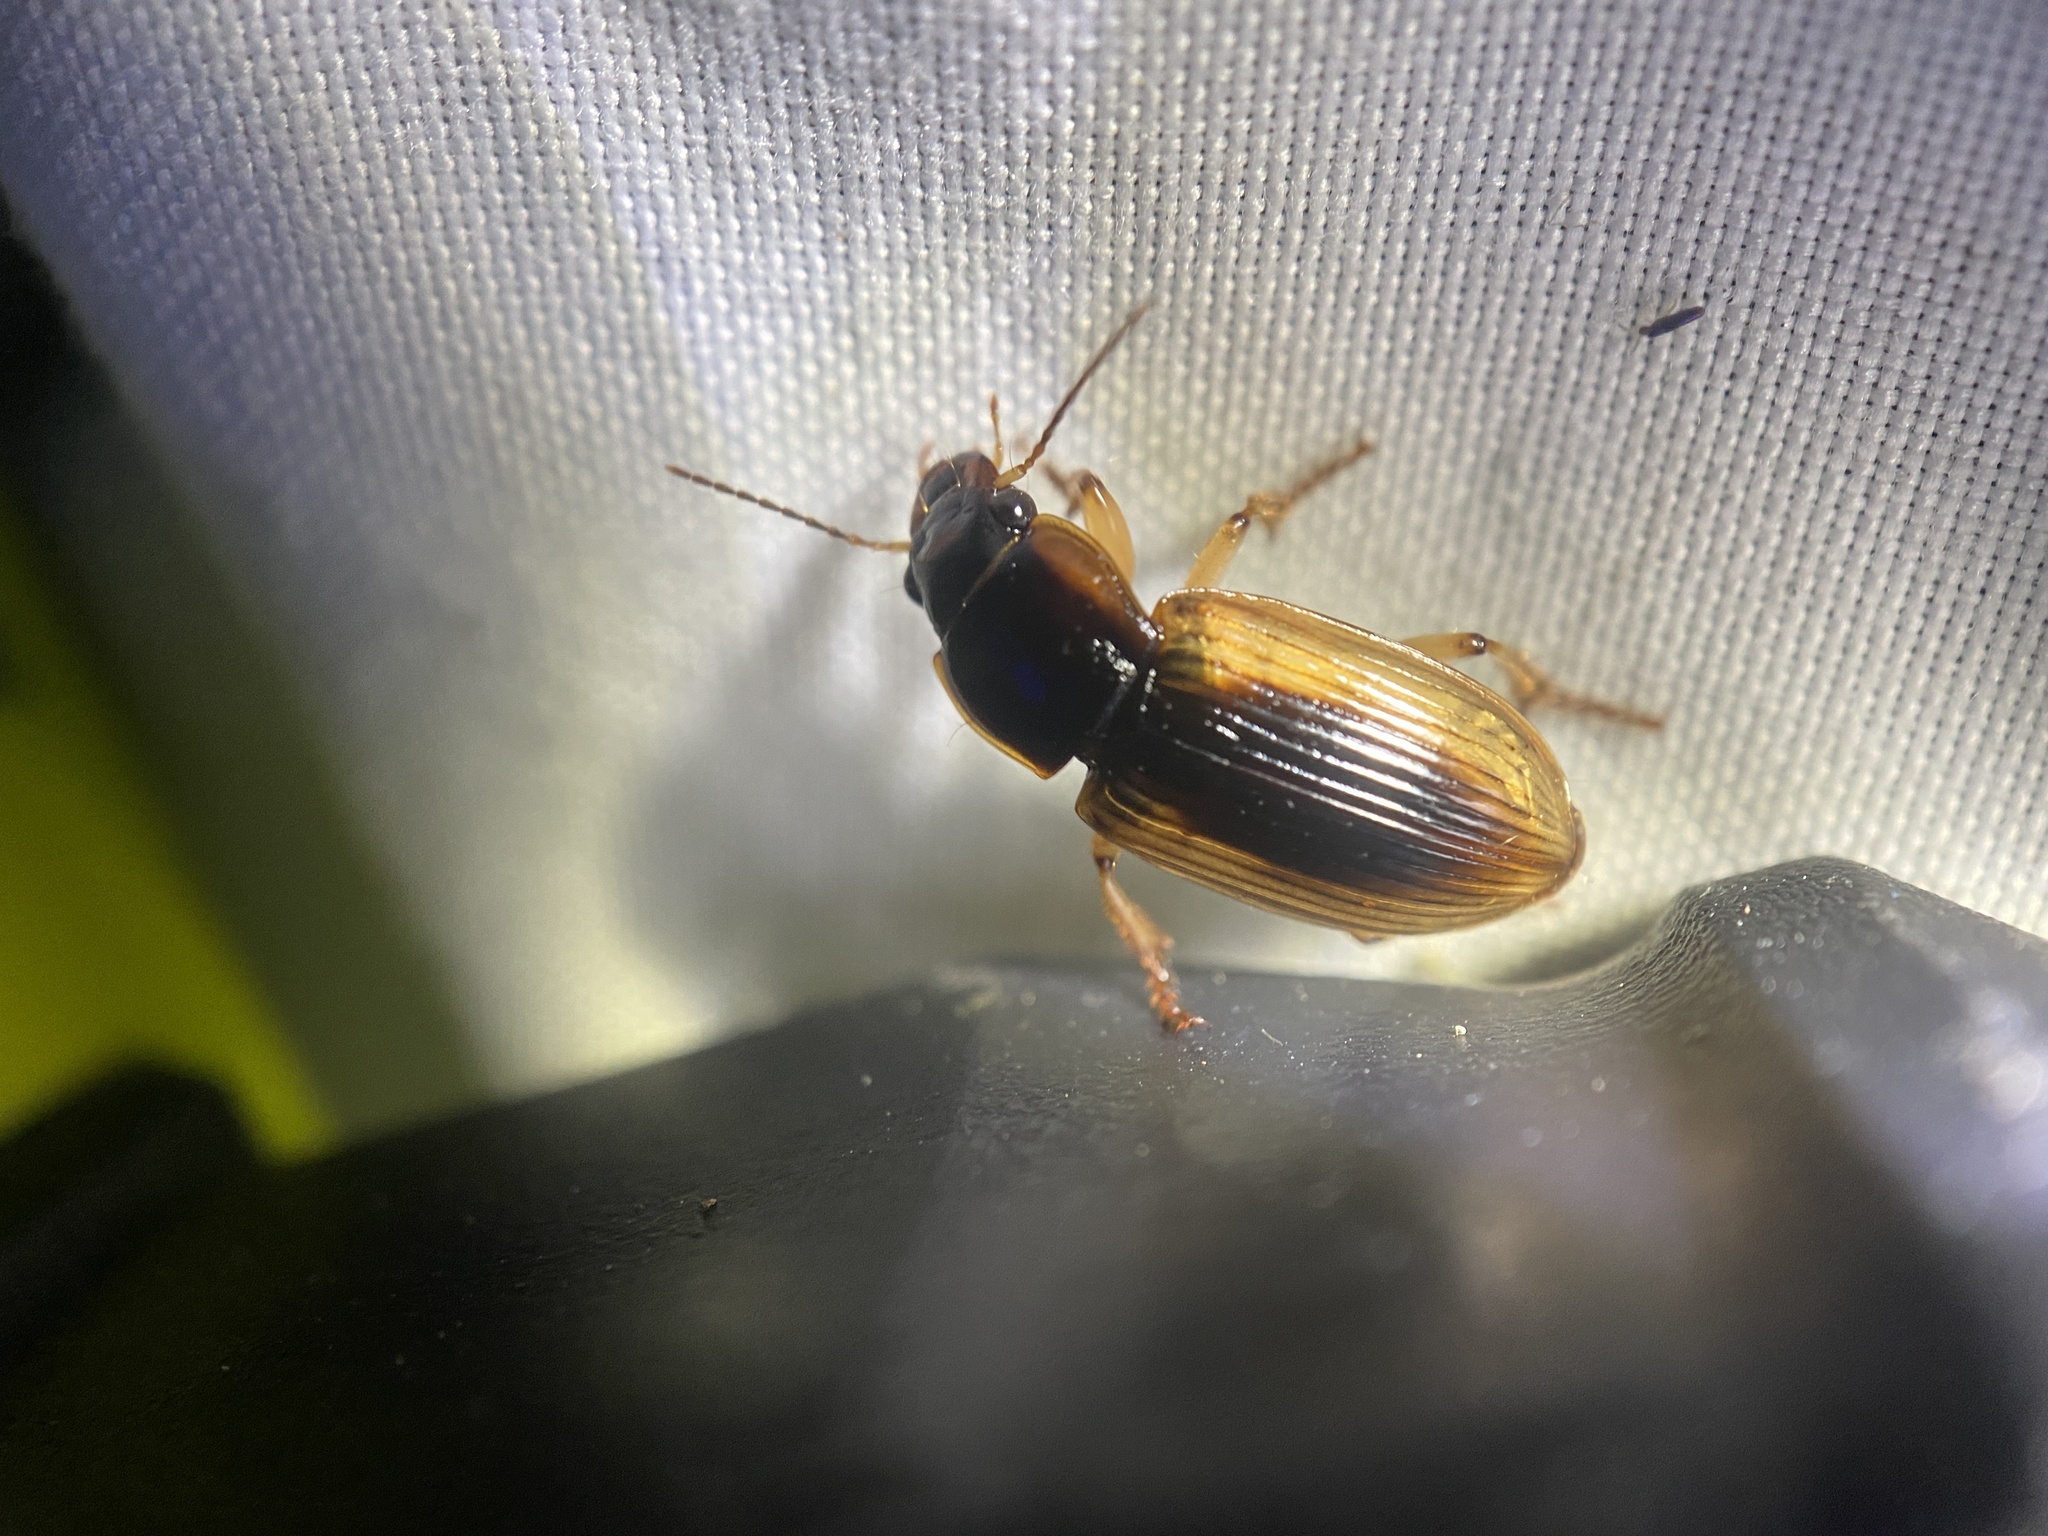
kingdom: Animalia
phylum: Arthropoda
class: Insecta
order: Coleoptera
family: Carabidae
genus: Anisodactylus
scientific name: Anisodactylus discoideus
